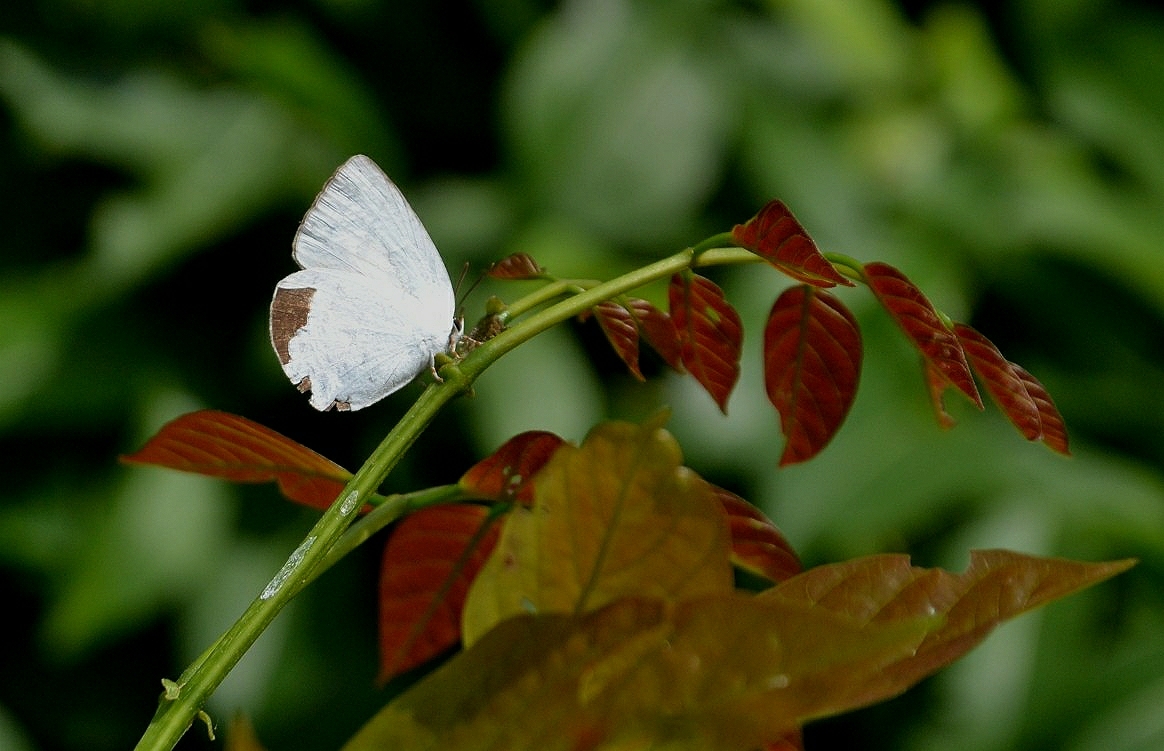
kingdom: Animalia
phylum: Arthropoda
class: Insecta
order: Lepidoptera
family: Lycaenidae
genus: Curetis
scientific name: Curetis thetis
